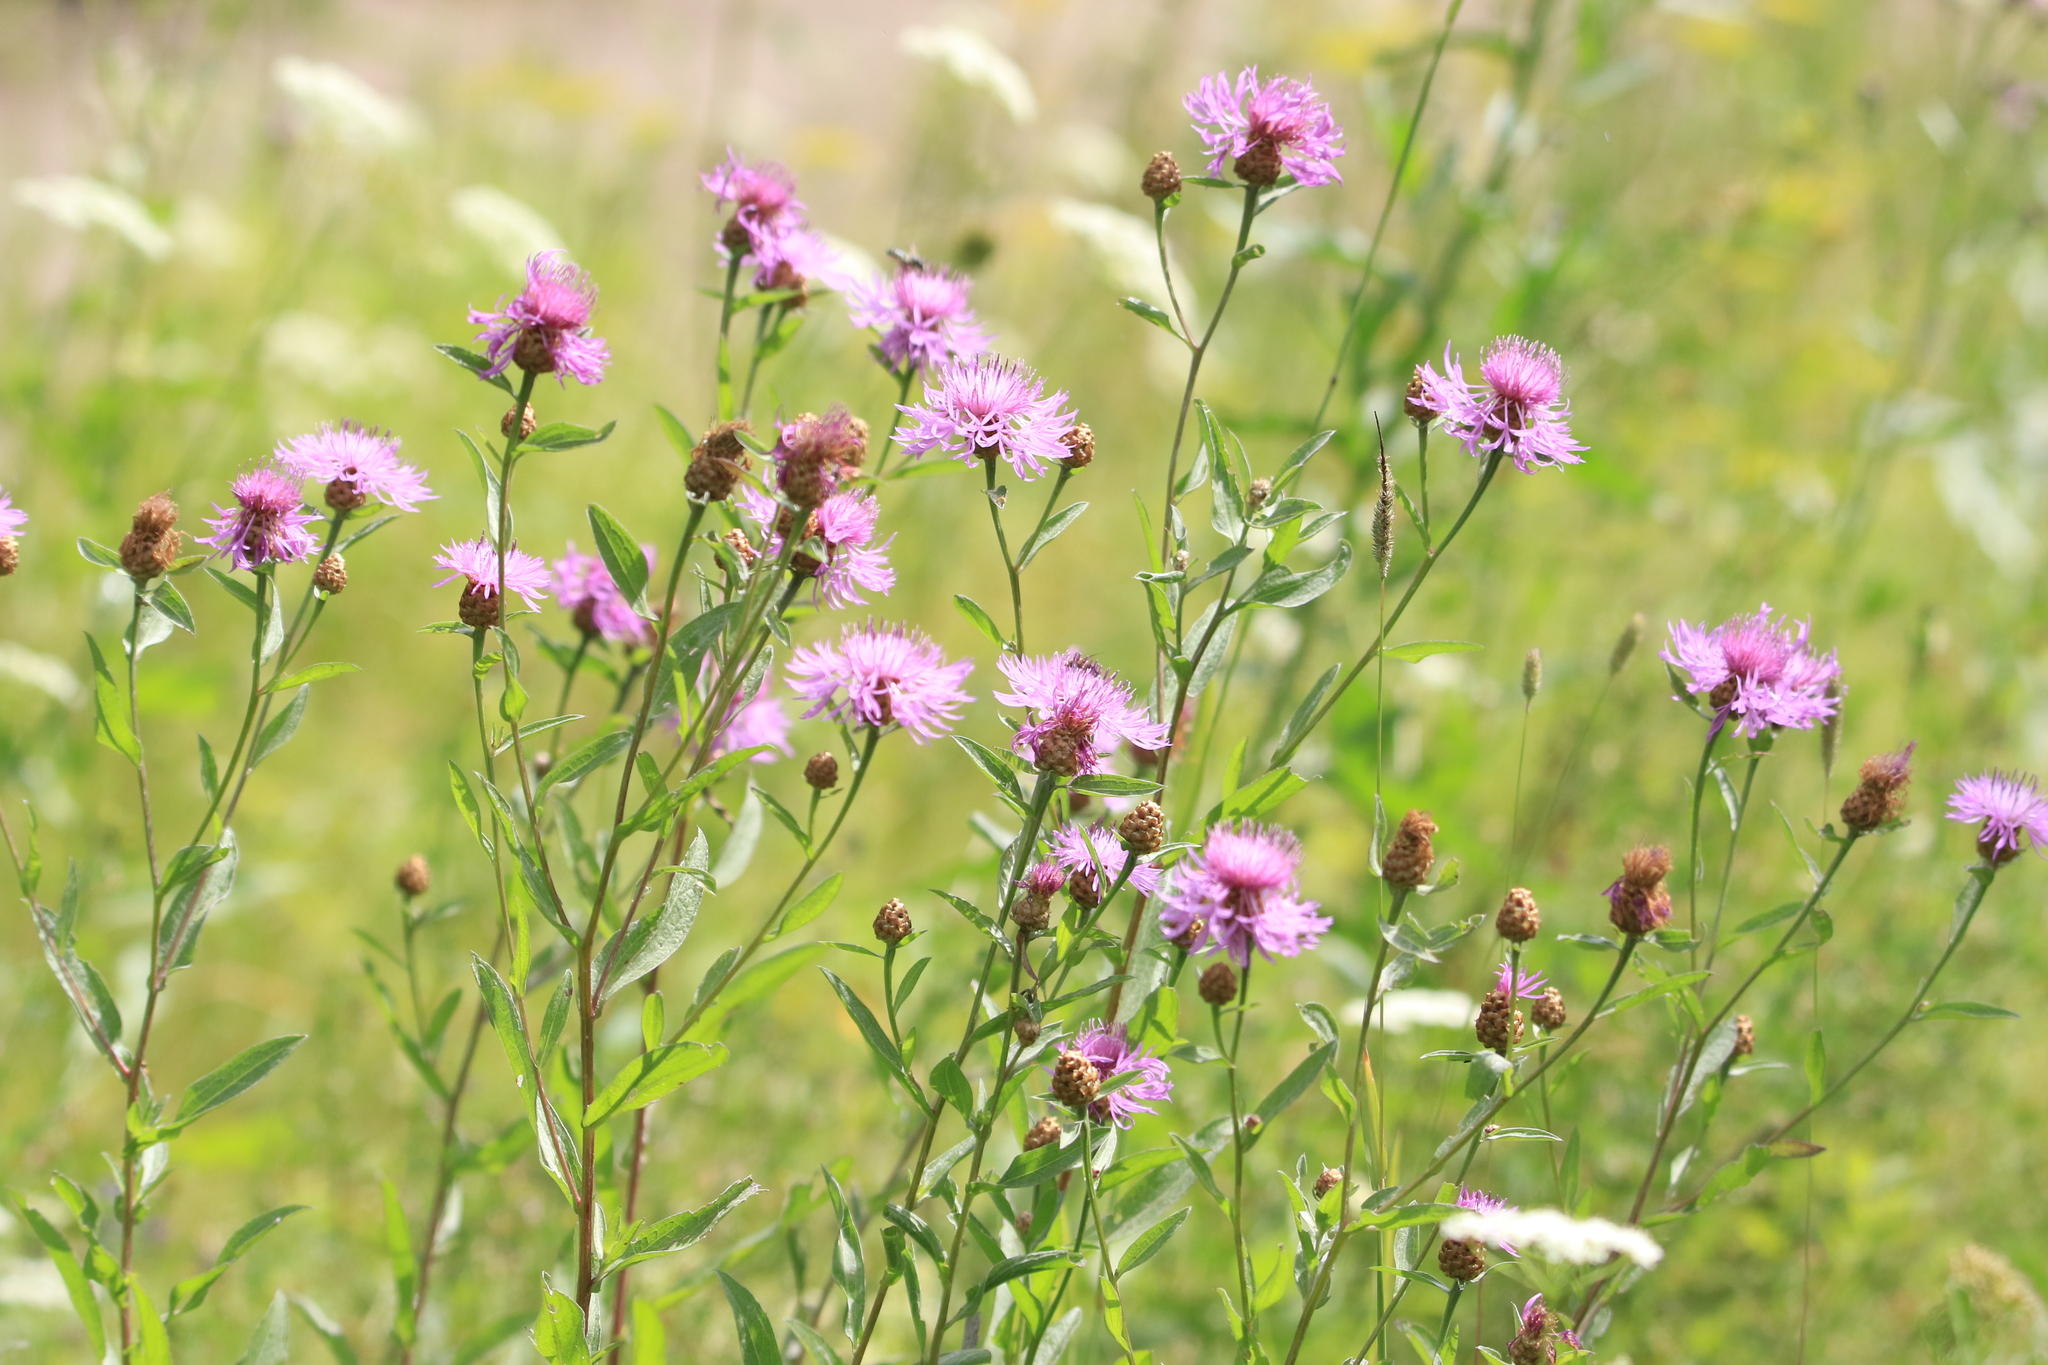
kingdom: Plantae
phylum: Tracheophyta
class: Magnoliopsida
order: Asterales
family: Asteraceae
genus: Centaurea
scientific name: Centaurea jacea
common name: Brown knapweed
